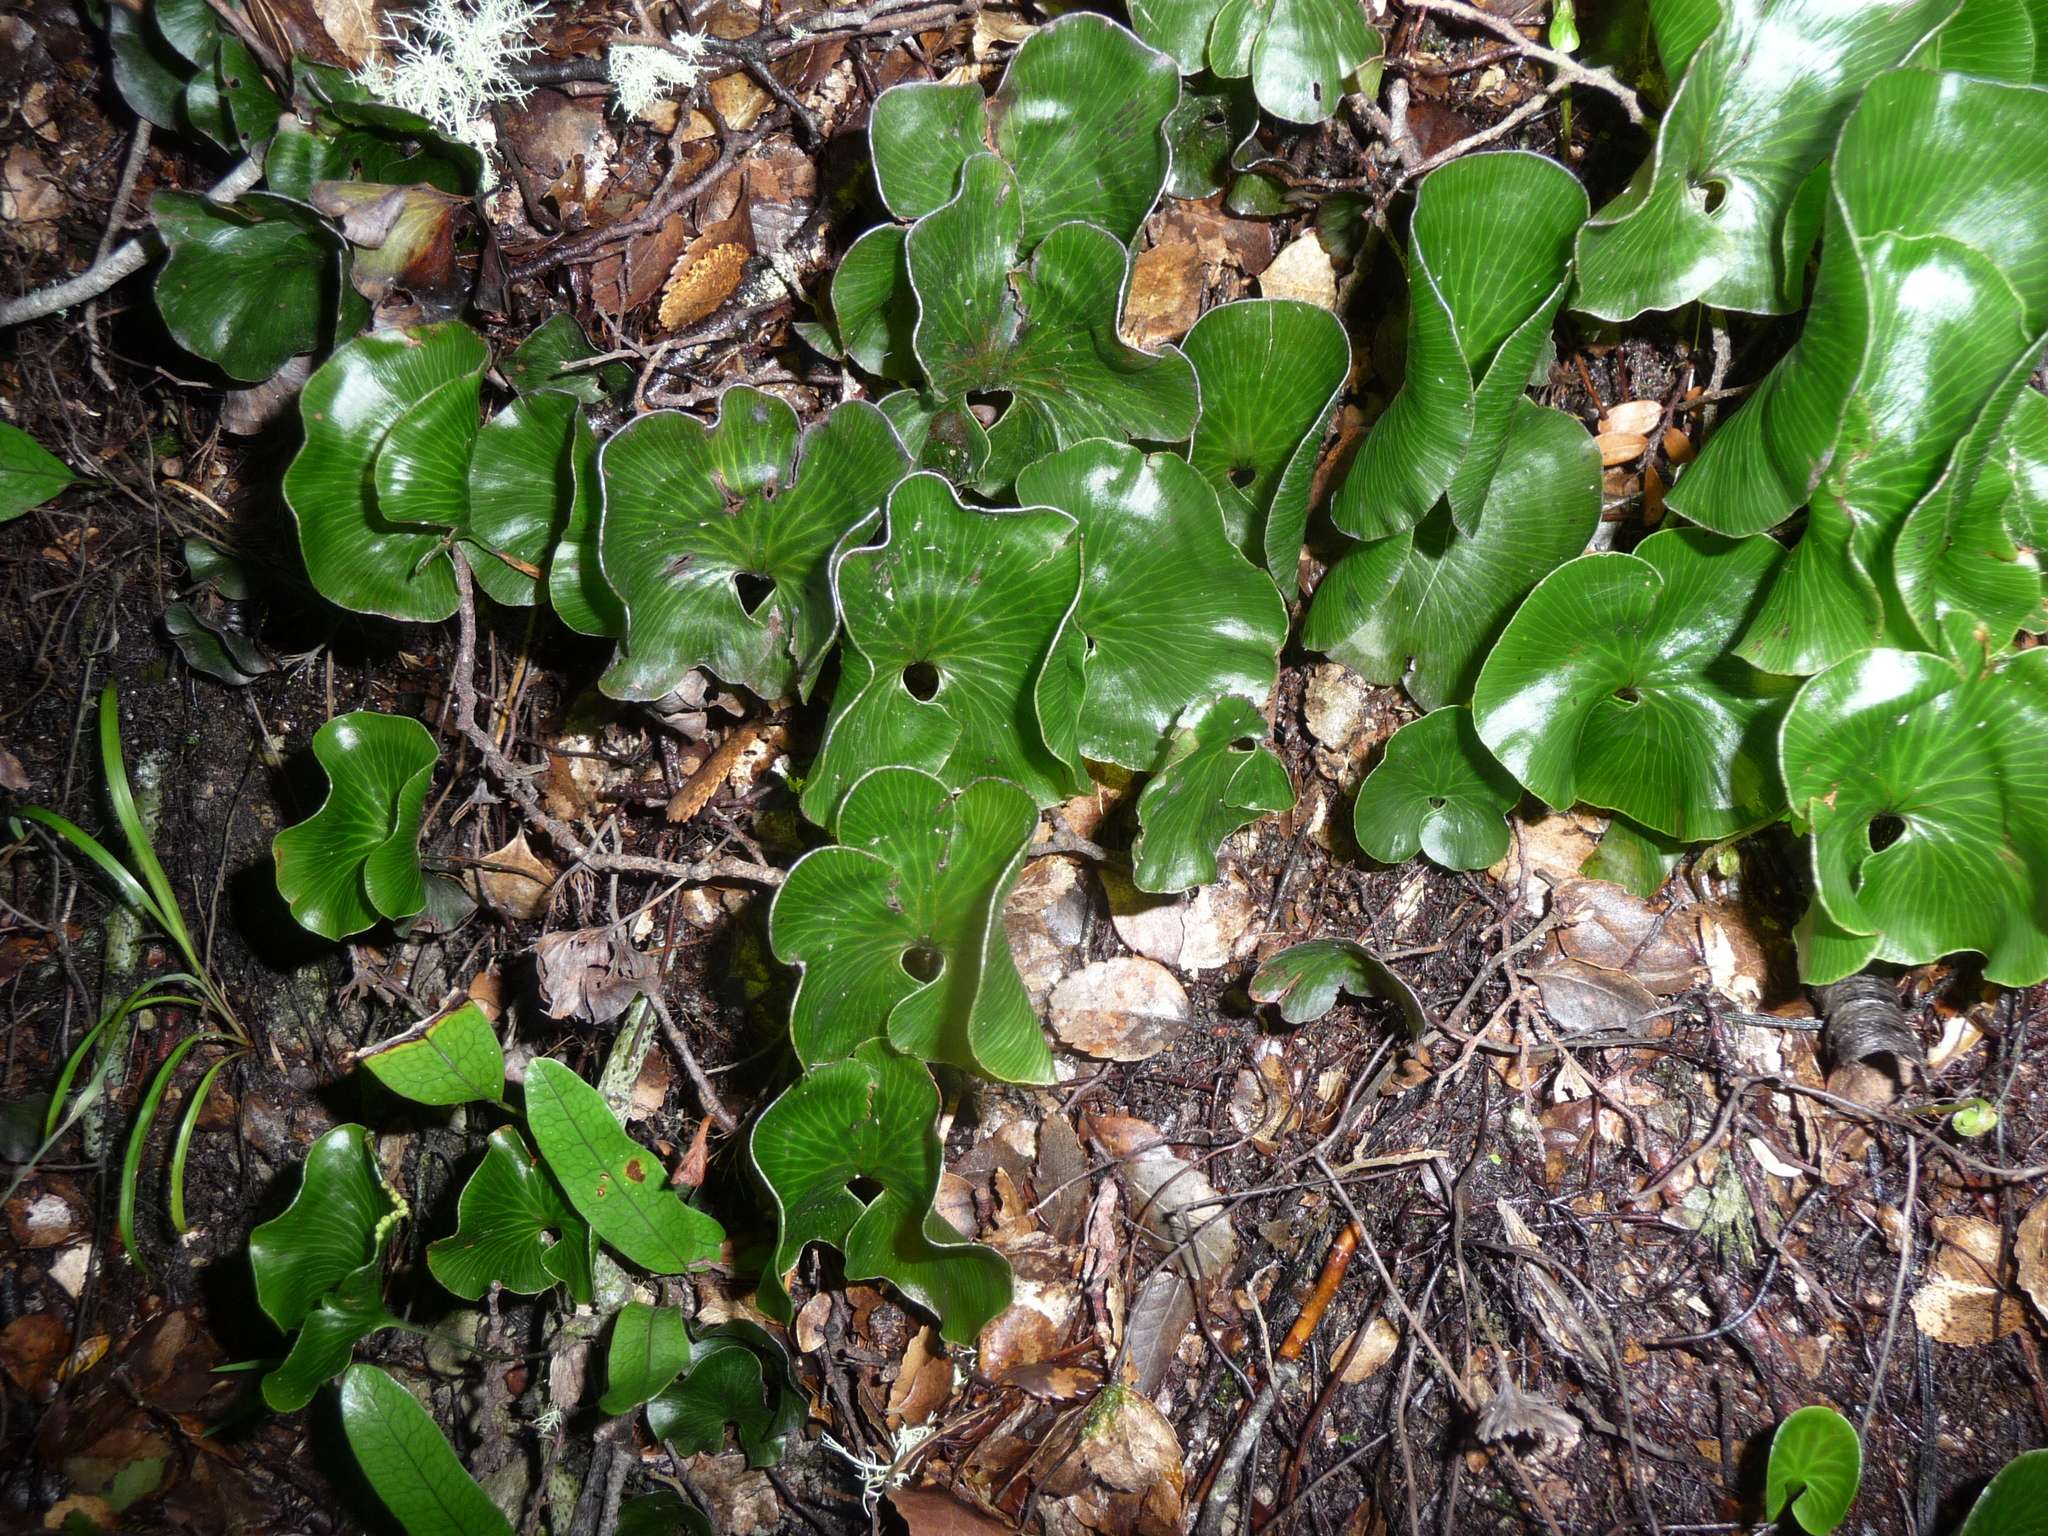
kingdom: Plantae
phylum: Tracheophyta
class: Polypodiopsida
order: Hymenophyllales
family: Hymenophyllaceae
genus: Hymenophyllum
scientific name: Hymenophyllum nephrophyllum
